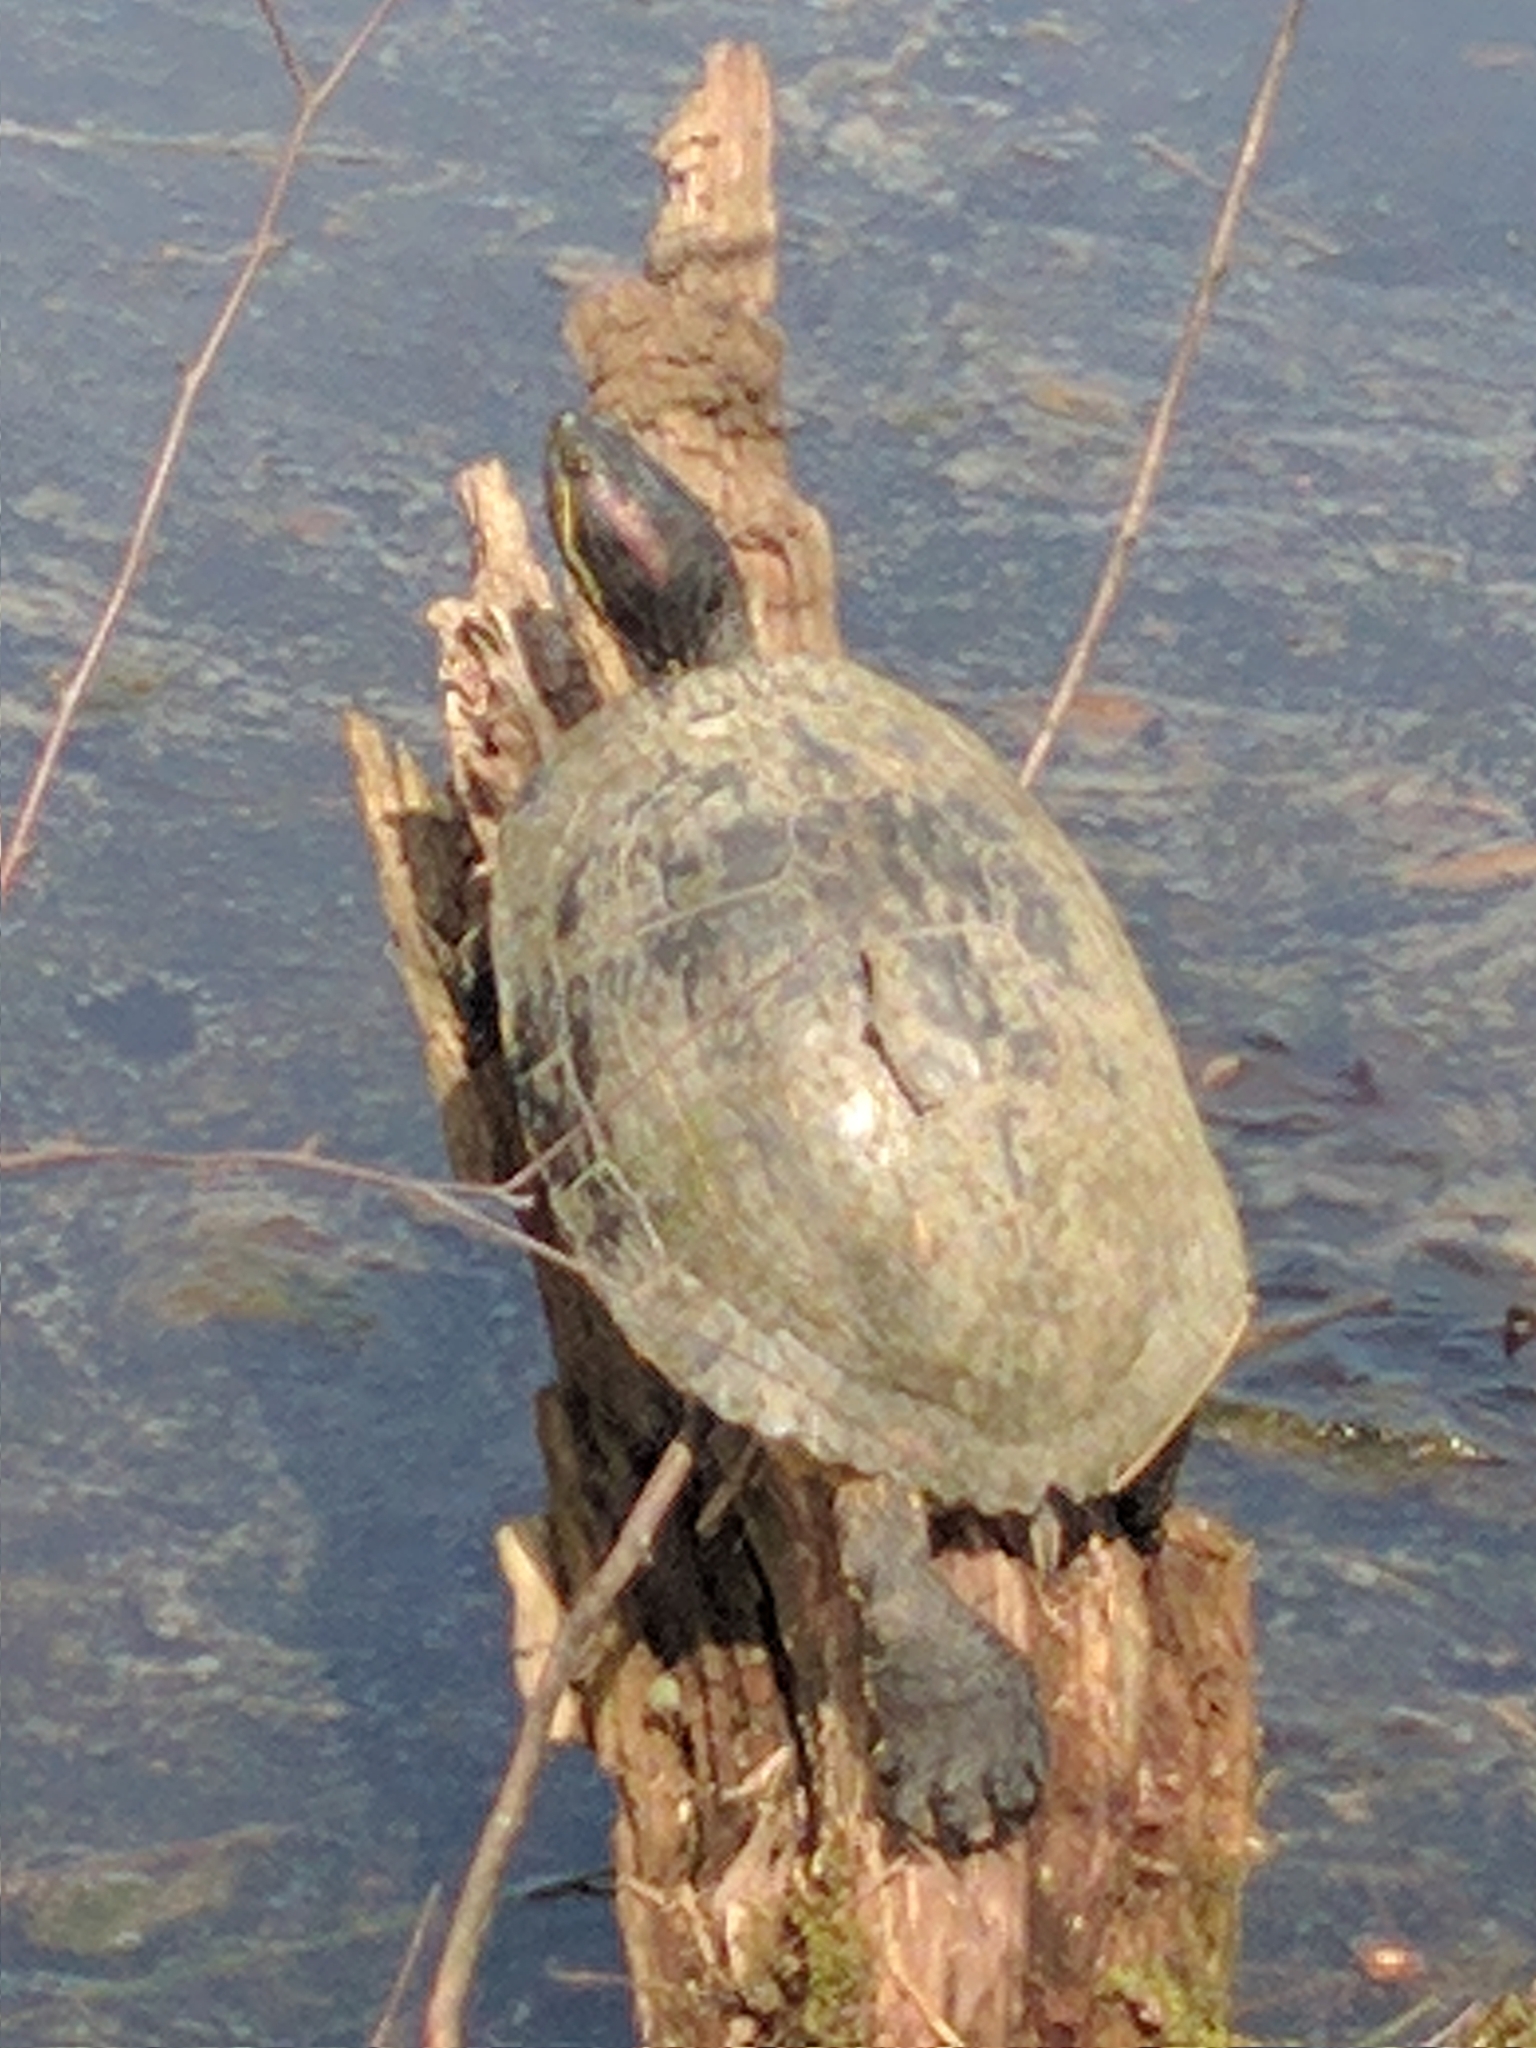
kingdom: Animalia
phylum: Chordata
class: Testudines
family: Emydidae
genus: Trachemys
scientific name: Trachemys scripta
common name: Slider
